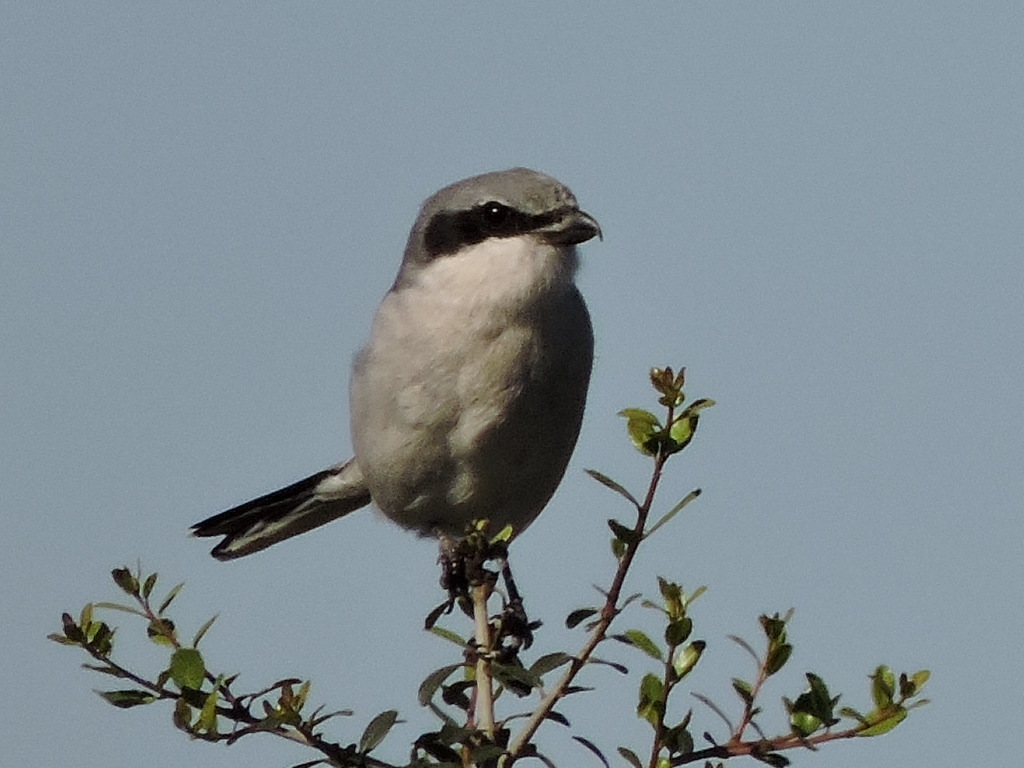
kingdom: Animalia
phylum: Chordata
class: Aves
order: Passeriformes
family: Laniidae
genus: Lanius
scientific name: Lanius ludovicianus
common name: Loggerhead shrike
